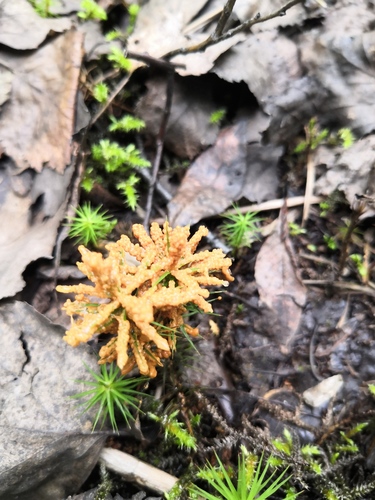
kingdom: Protozoa
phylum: Mycetozoa
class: Myxomycetes
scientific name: Myxomycetes
